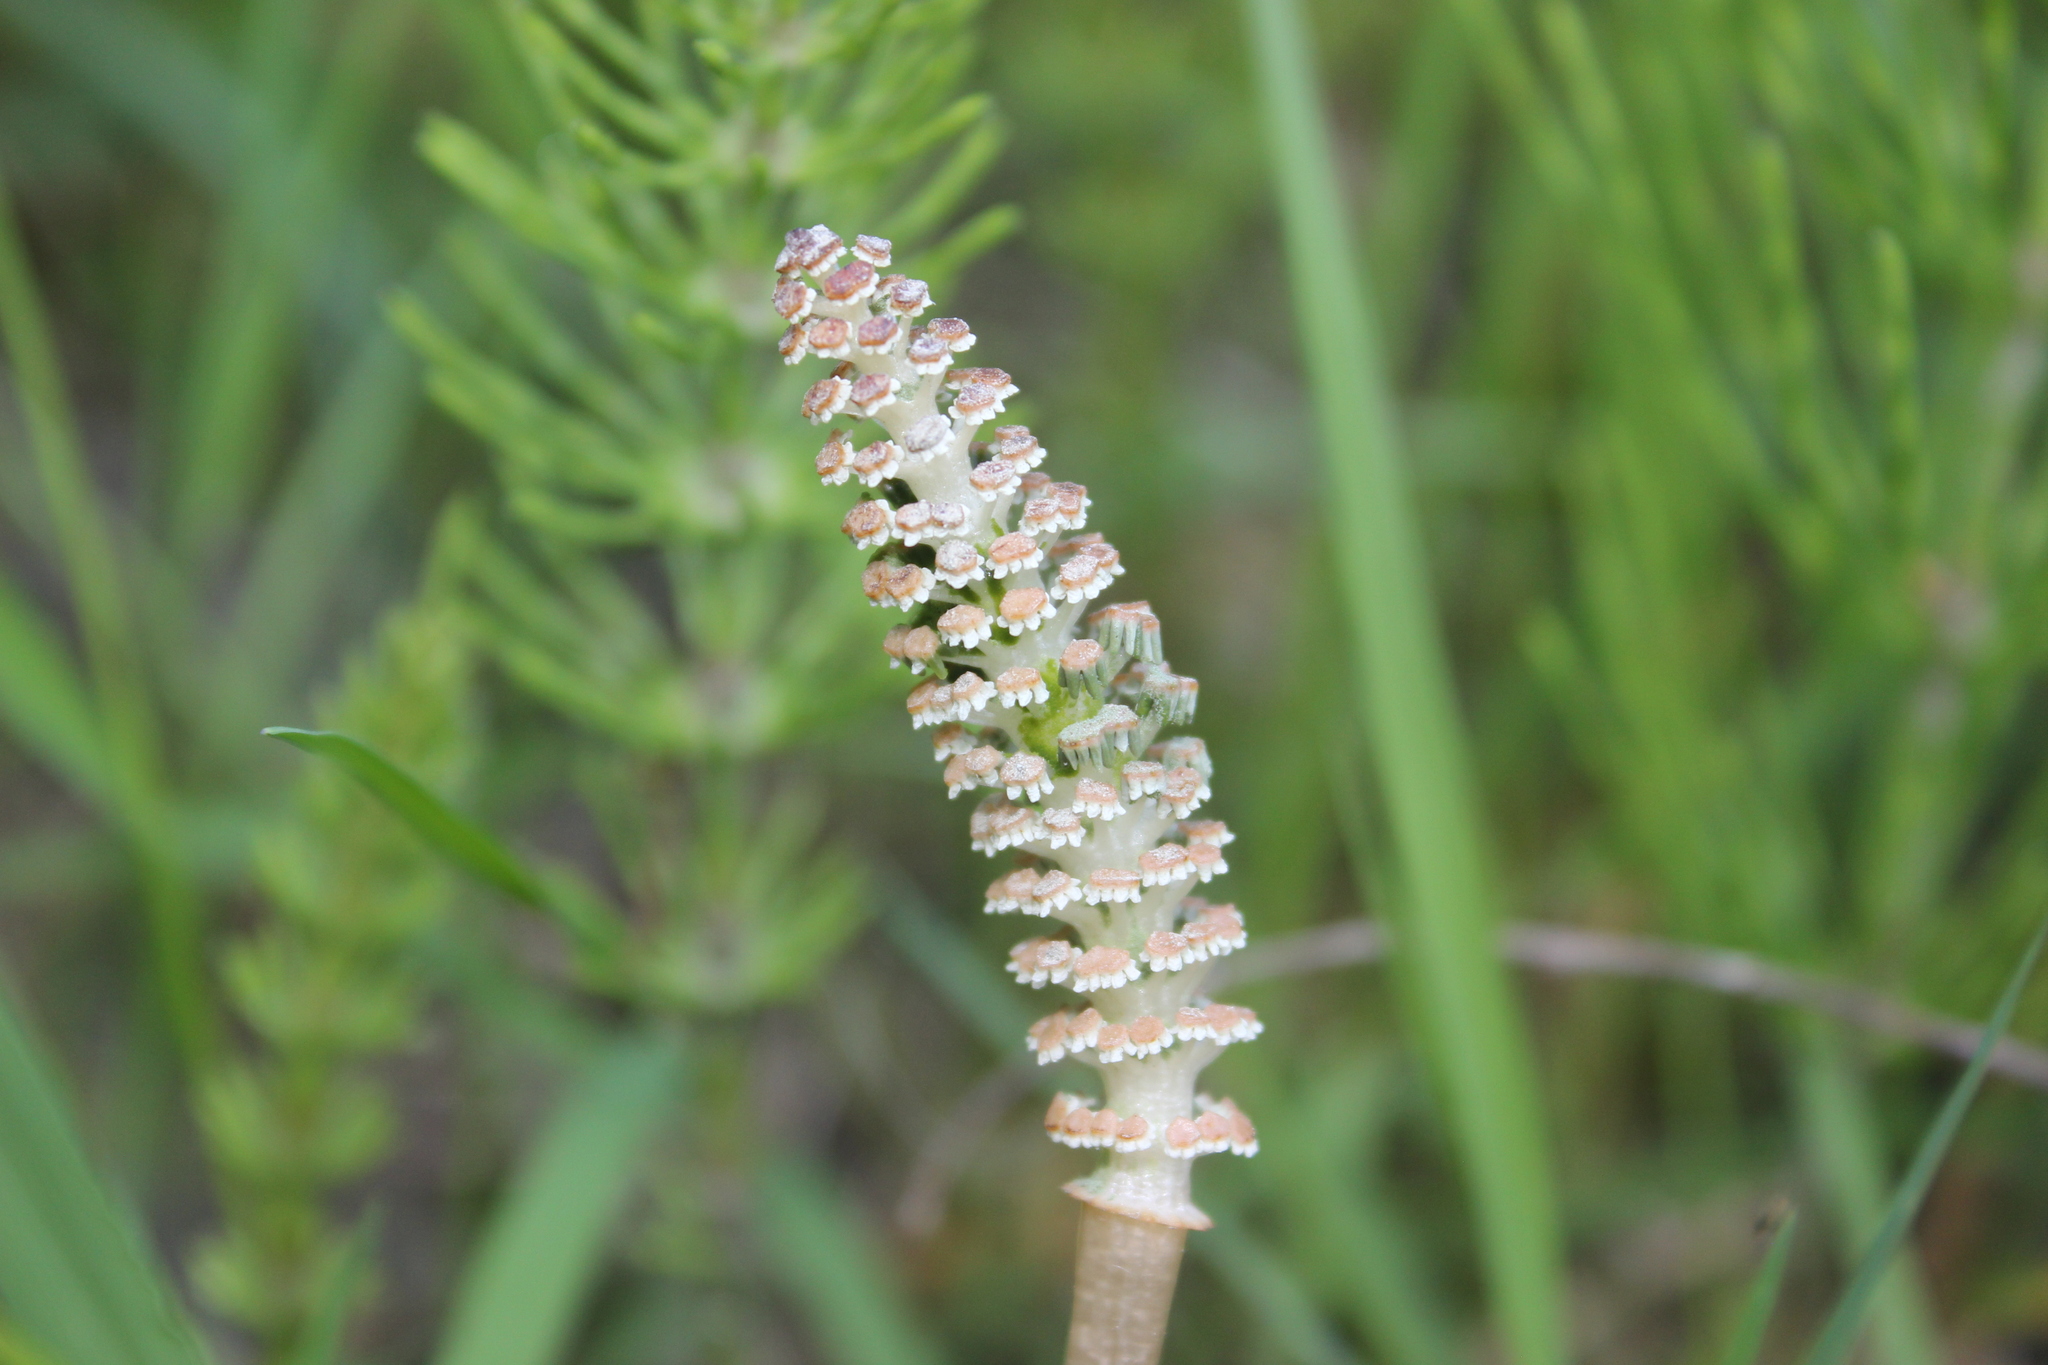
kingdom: Plantae
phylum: Tracheophyta
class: Polypodiopsida
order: Equisetales
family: Equisetaceae
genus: Equisetum
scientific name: Equisetum arvense
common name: Field horsetail
